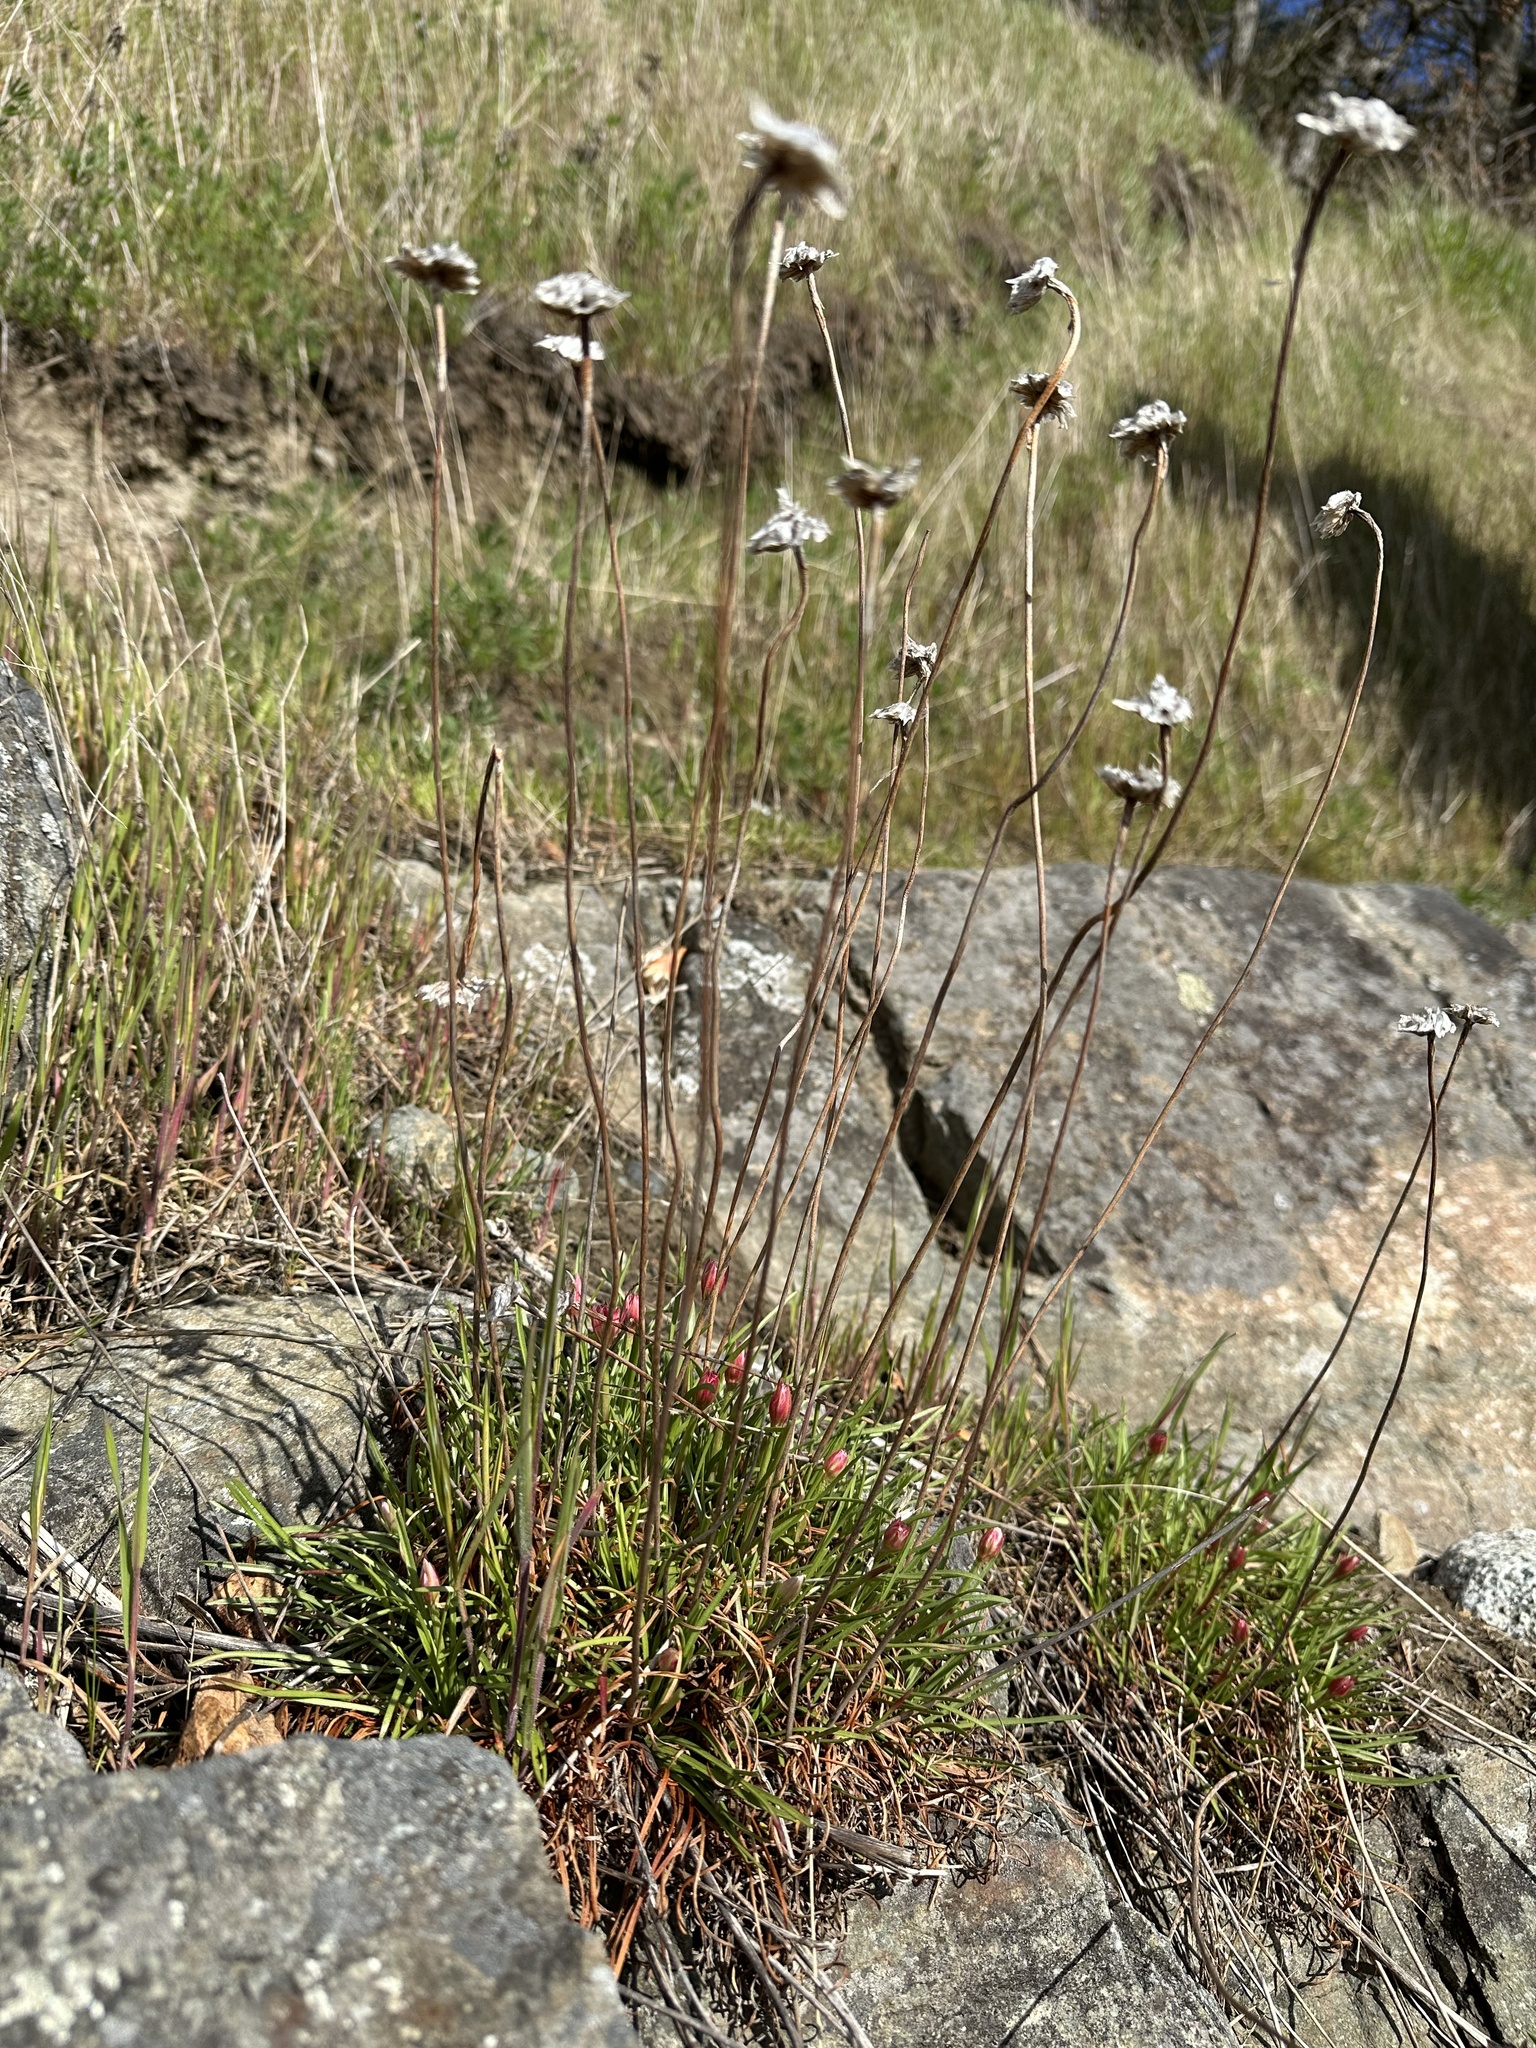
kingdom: Plantae
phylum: Tracheophyta
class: Magnoliopsida
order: Caryophyllales
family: Plumbaginaceae
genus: Armeria
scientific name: Armeria maritima
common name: Thrift
